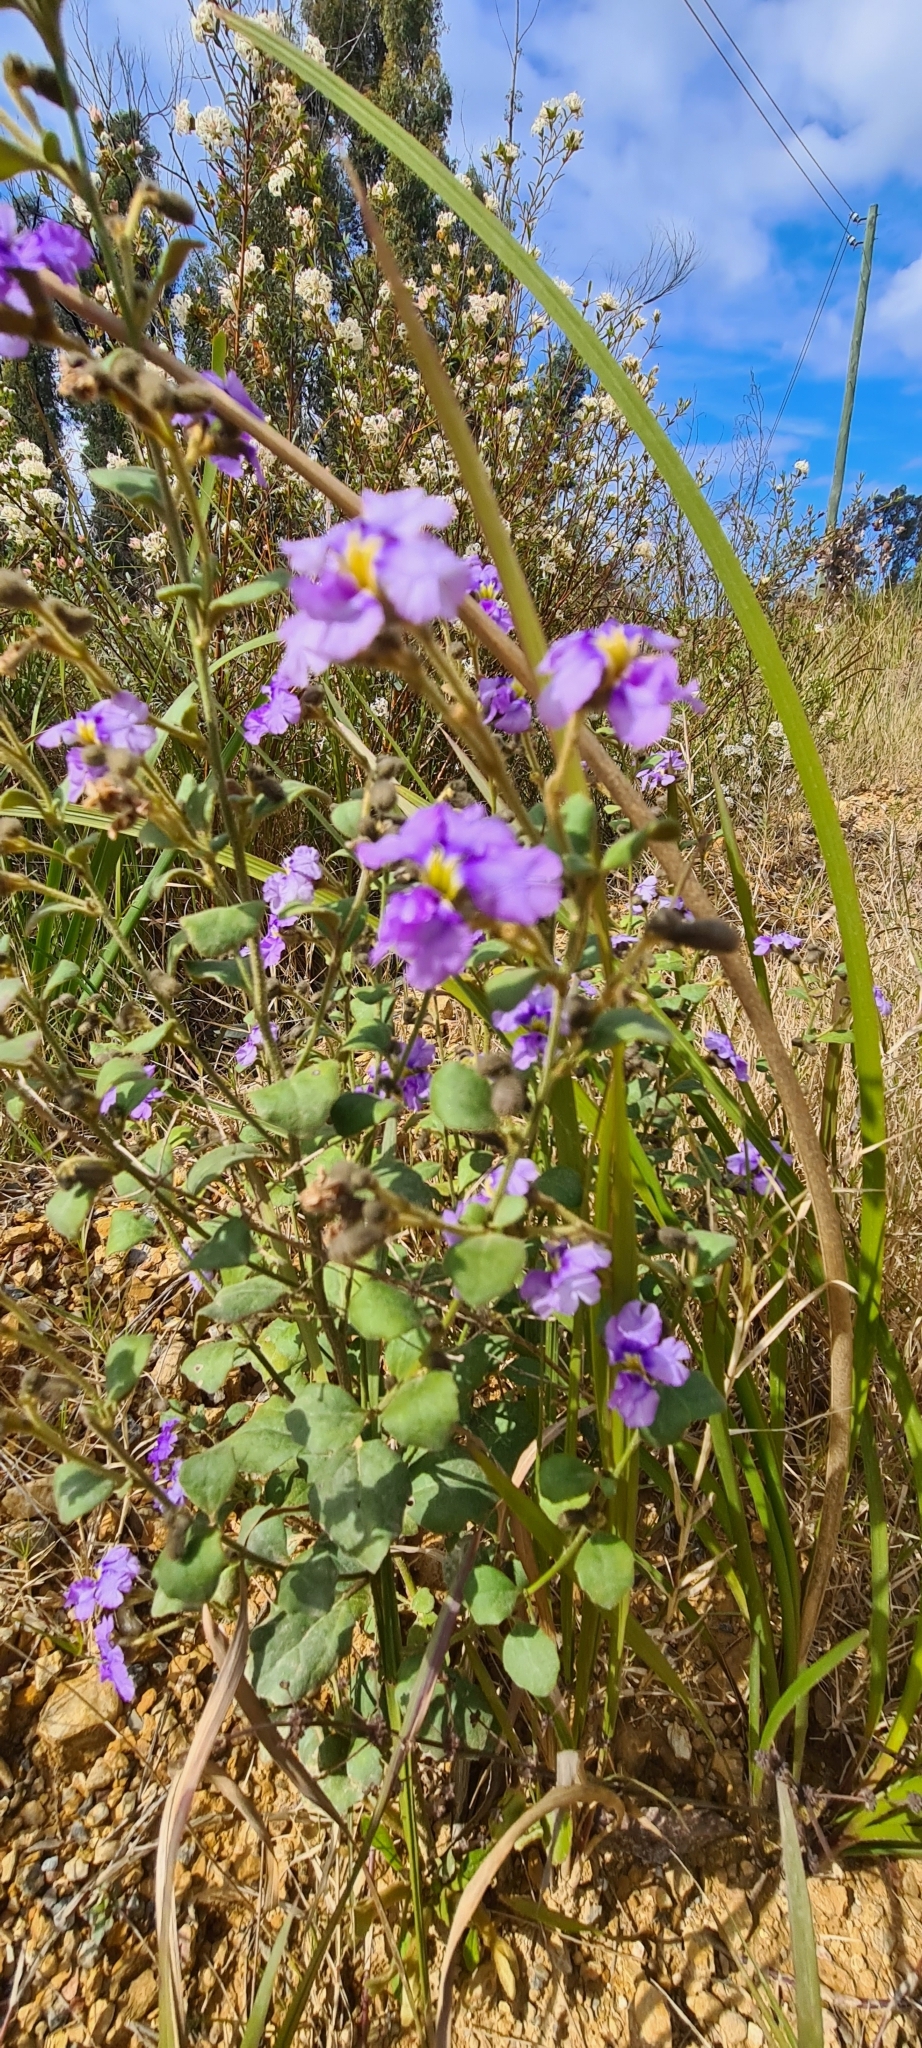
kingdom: Plantae
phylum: Tracheophyta
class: Magnoliopsida
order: Asterales
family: Goodeniaceae
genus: Dampiera
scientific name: Dampiera purpurea
